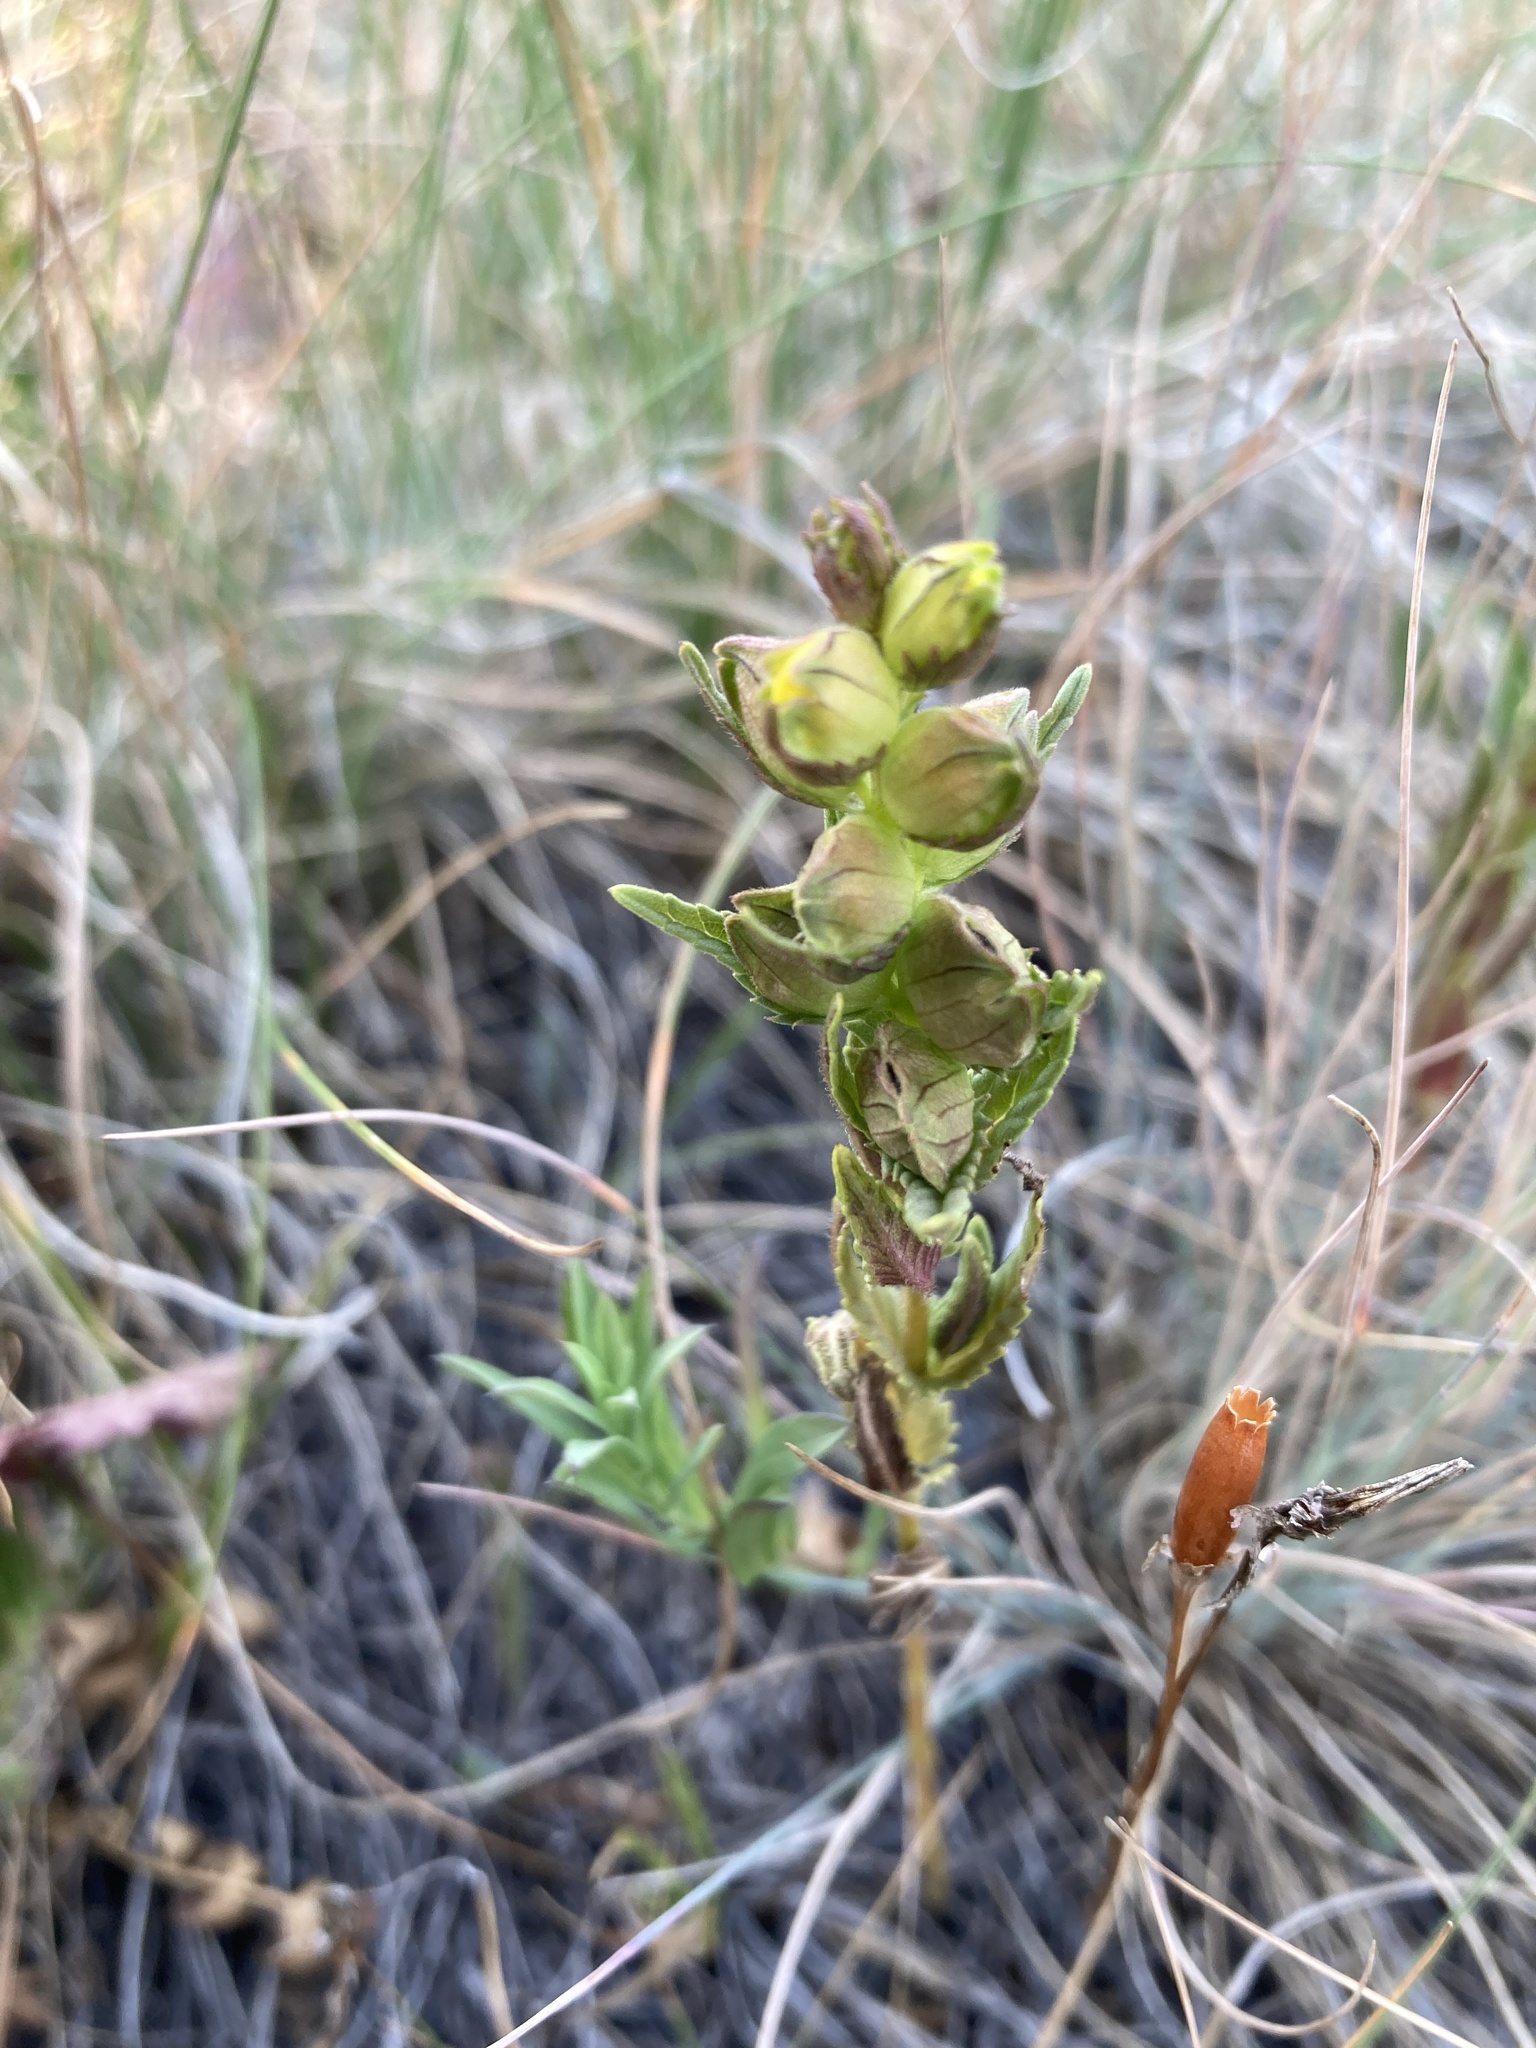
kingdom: Plantae
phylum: Tracheophyta
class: Magnoliopsida
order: Lamiales
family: Orobanchaceae
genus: Rhinanthus
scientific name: Rhinanthus groenlandicus
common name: Little yellow rattle
